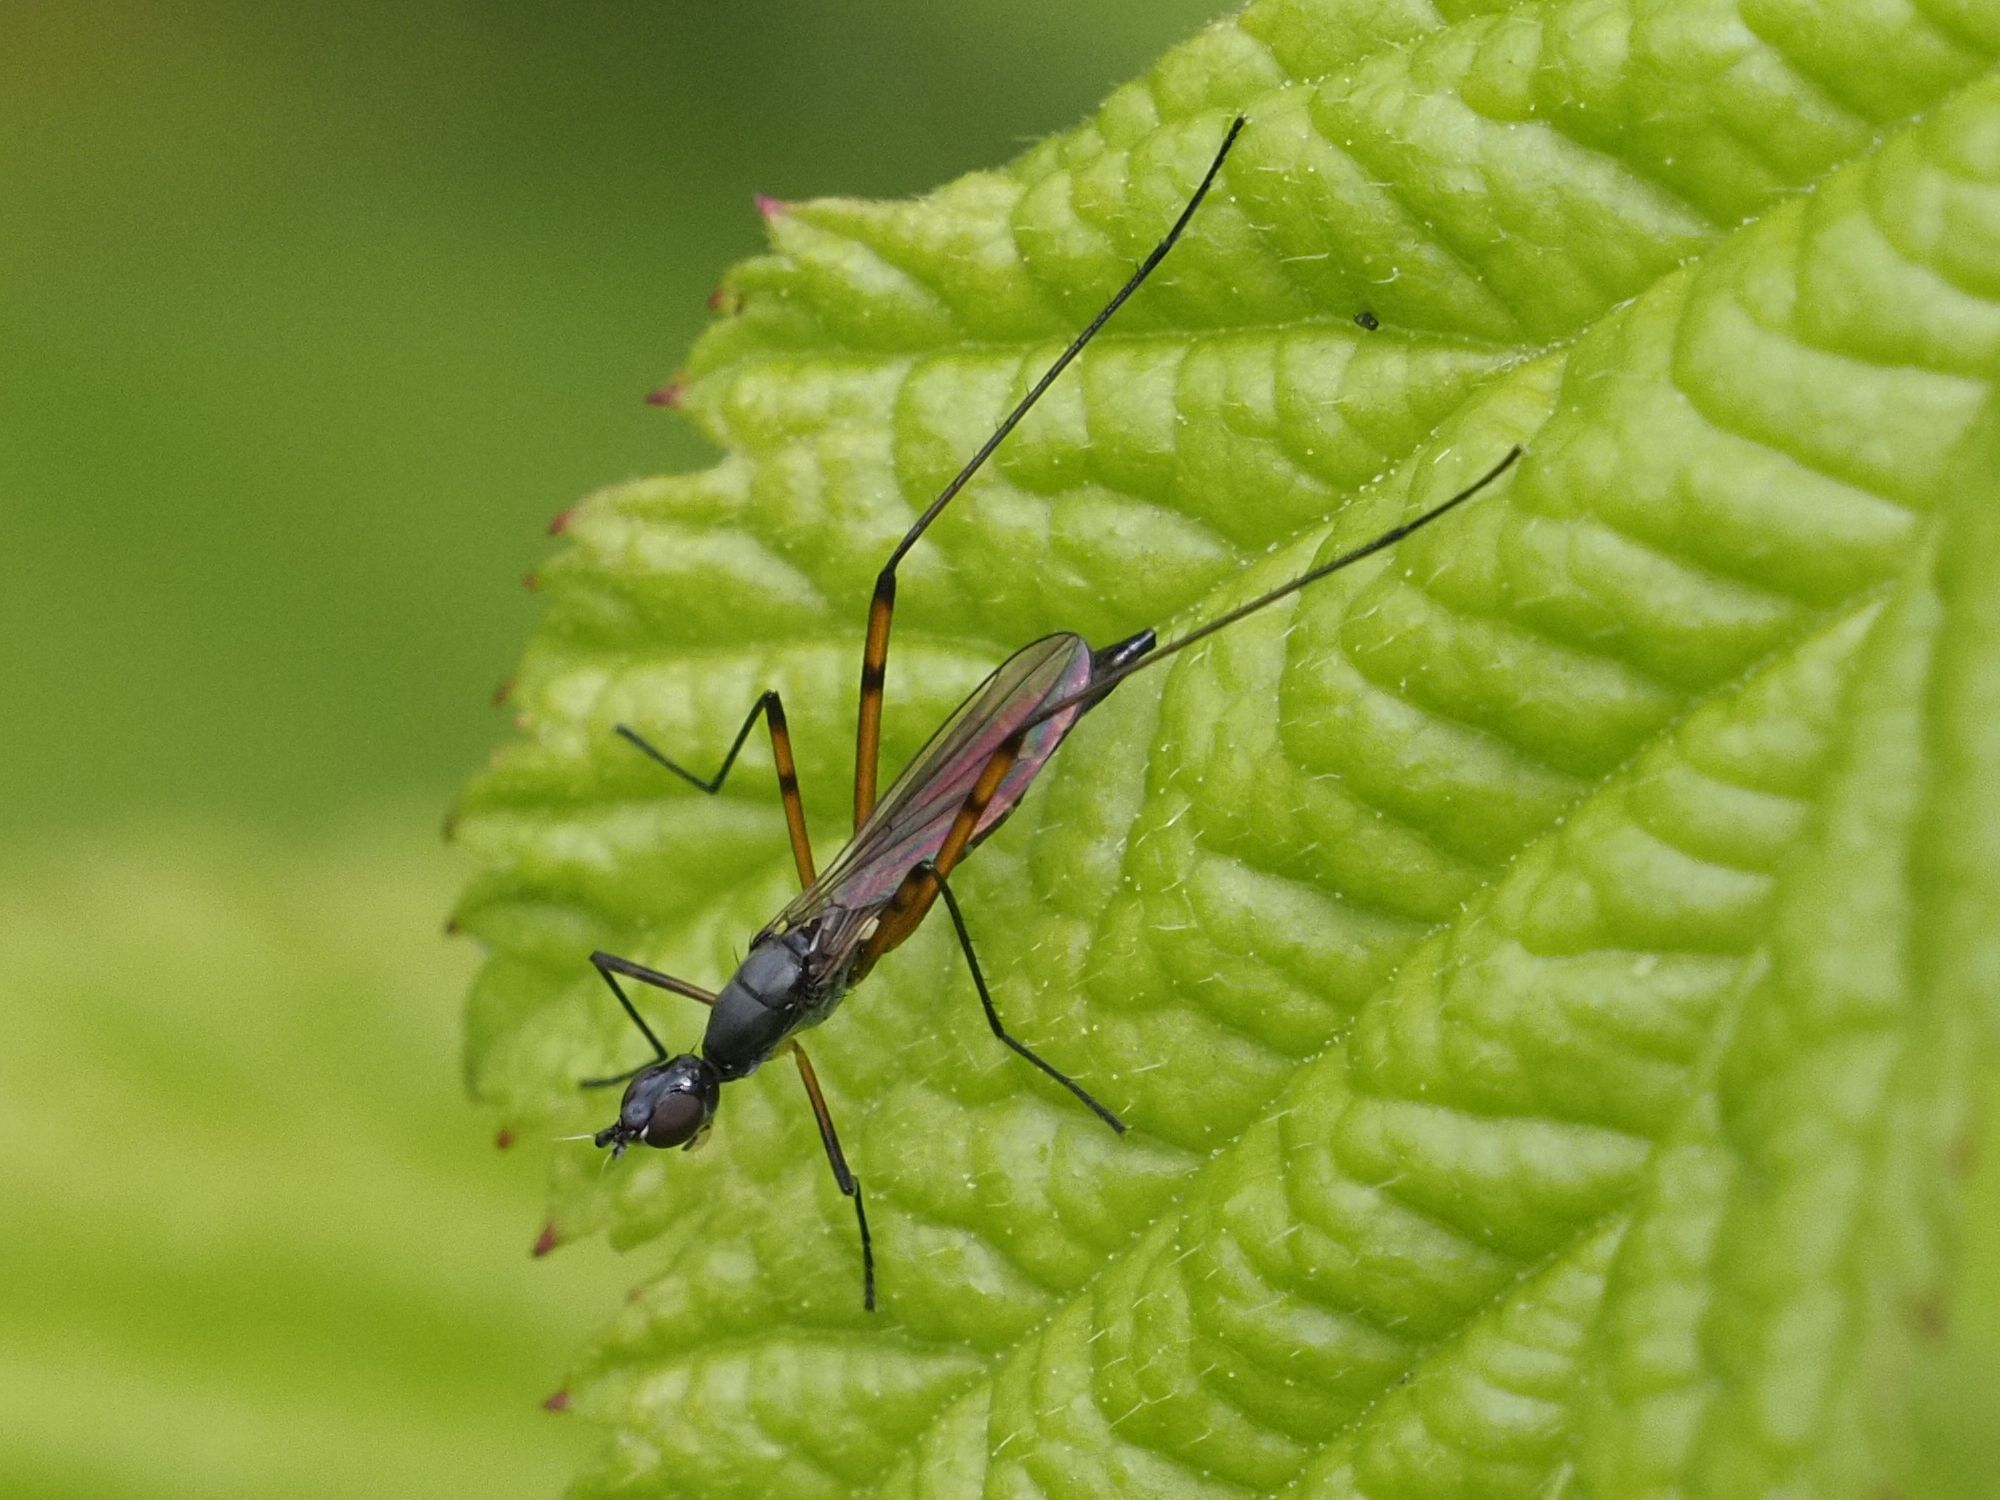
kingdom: Animalia
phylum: Arthropoda
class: Insecta
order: Diptera
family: Micropezidae
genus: Micropeza
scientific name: Micropeza corrigiolata
